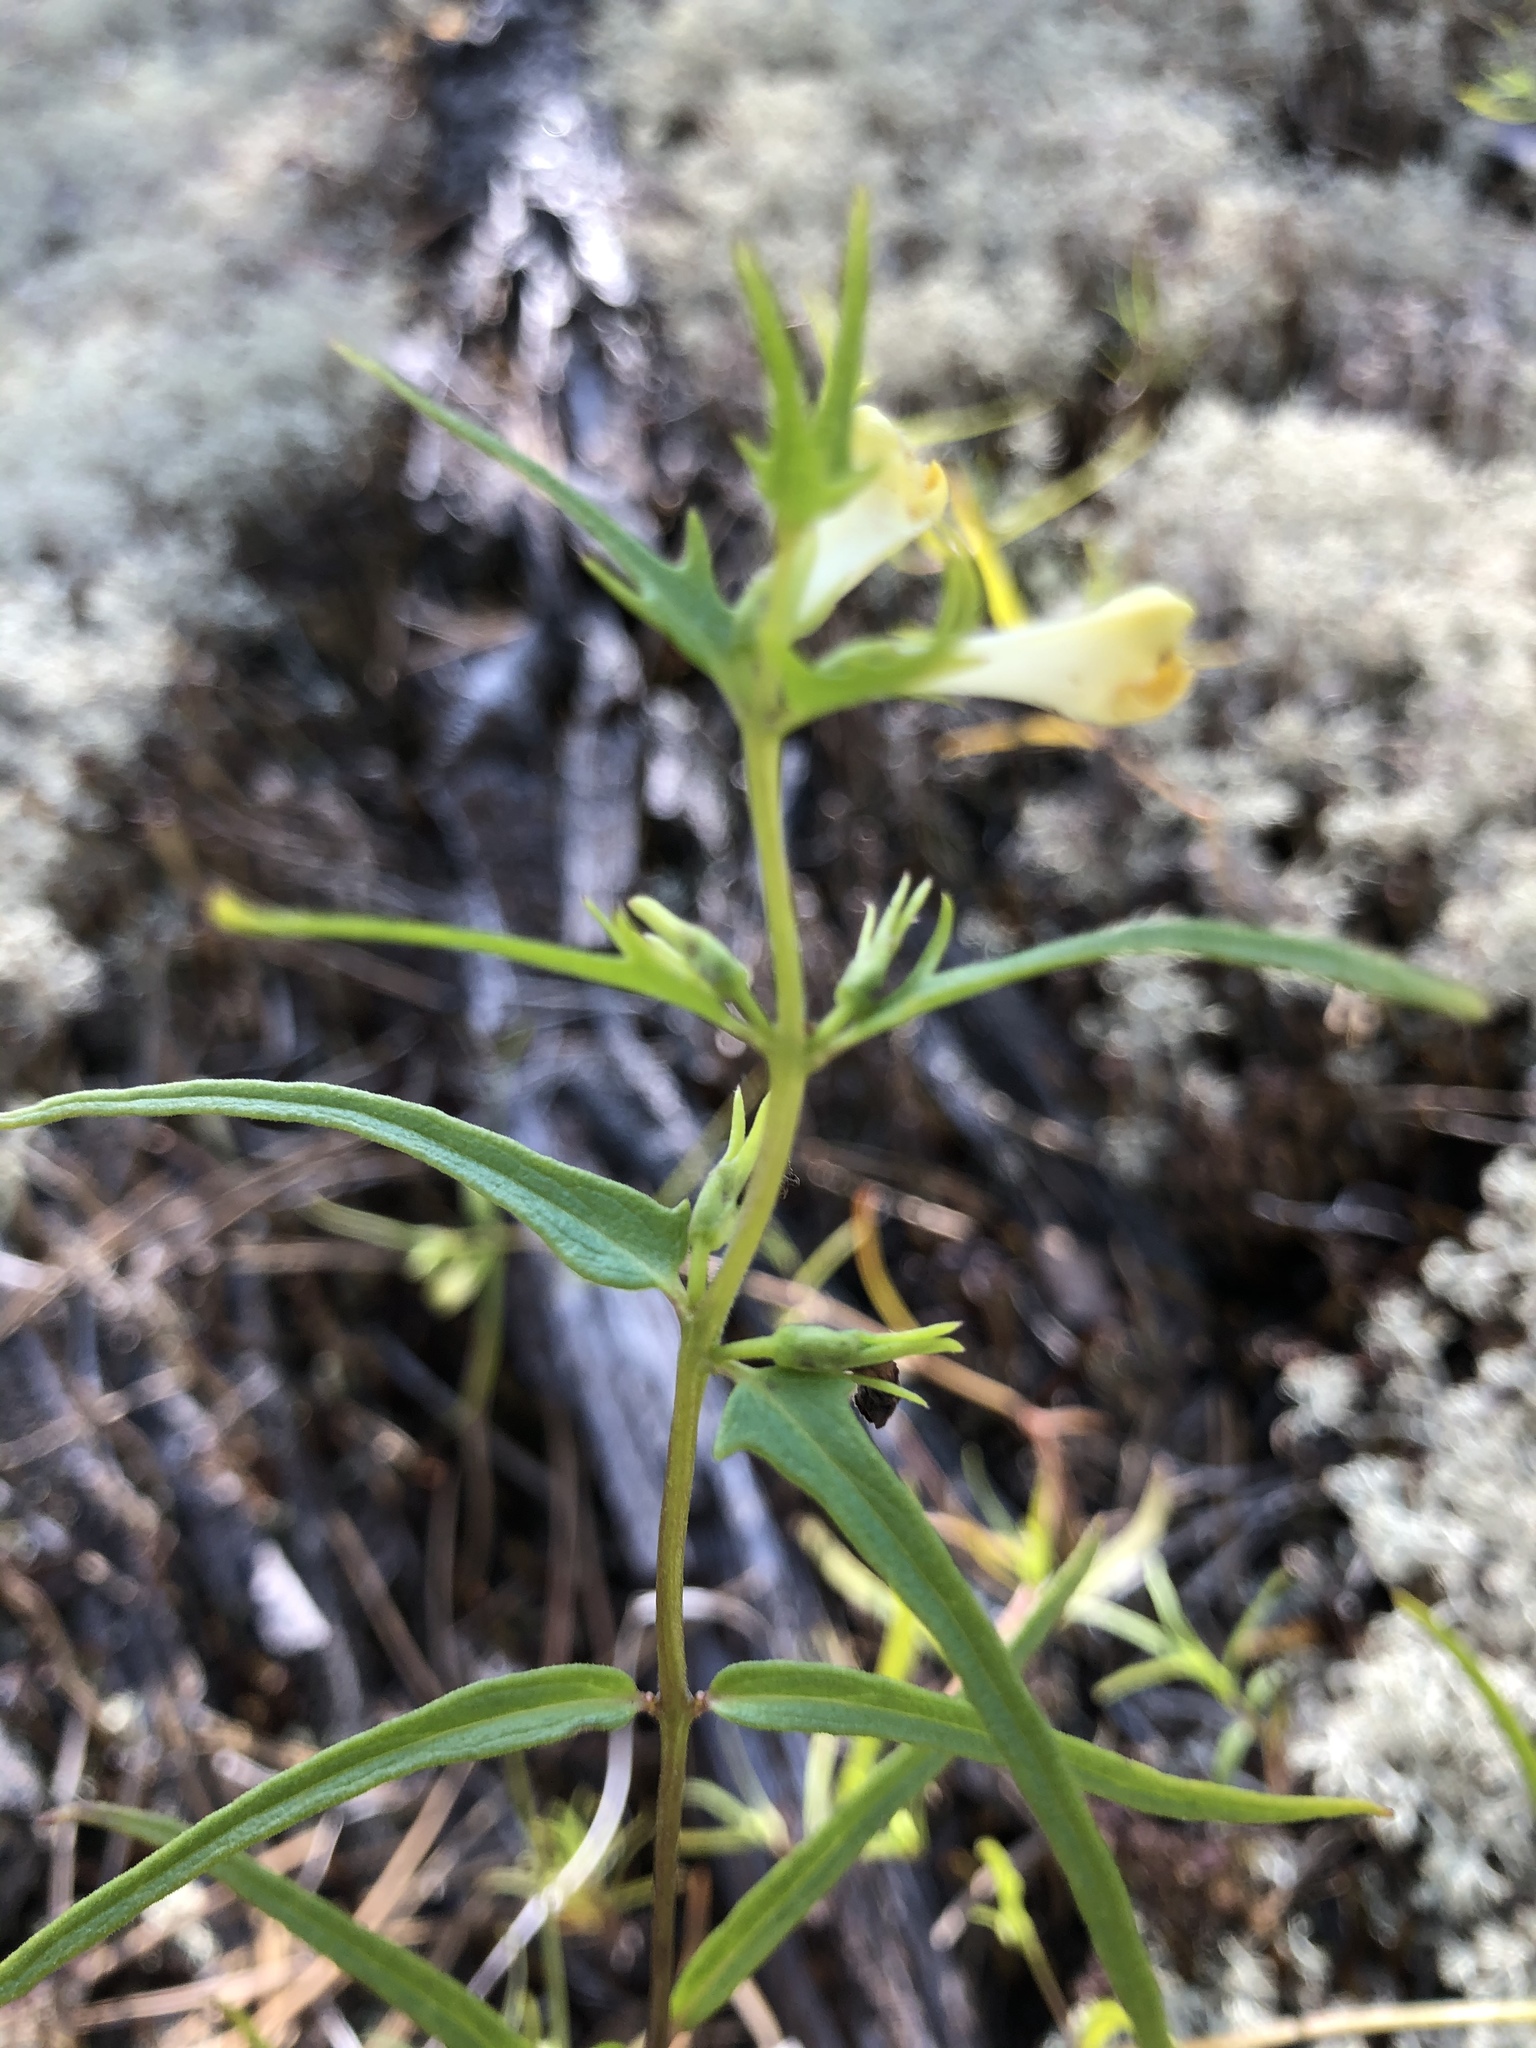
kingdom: Plantae
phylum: Tracheophyta
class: Magnoliopsida
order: Lamiales
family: Orobanchaceae
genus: Melampyrum
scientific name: Melampyrum pratense
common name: Common cow-wheat
